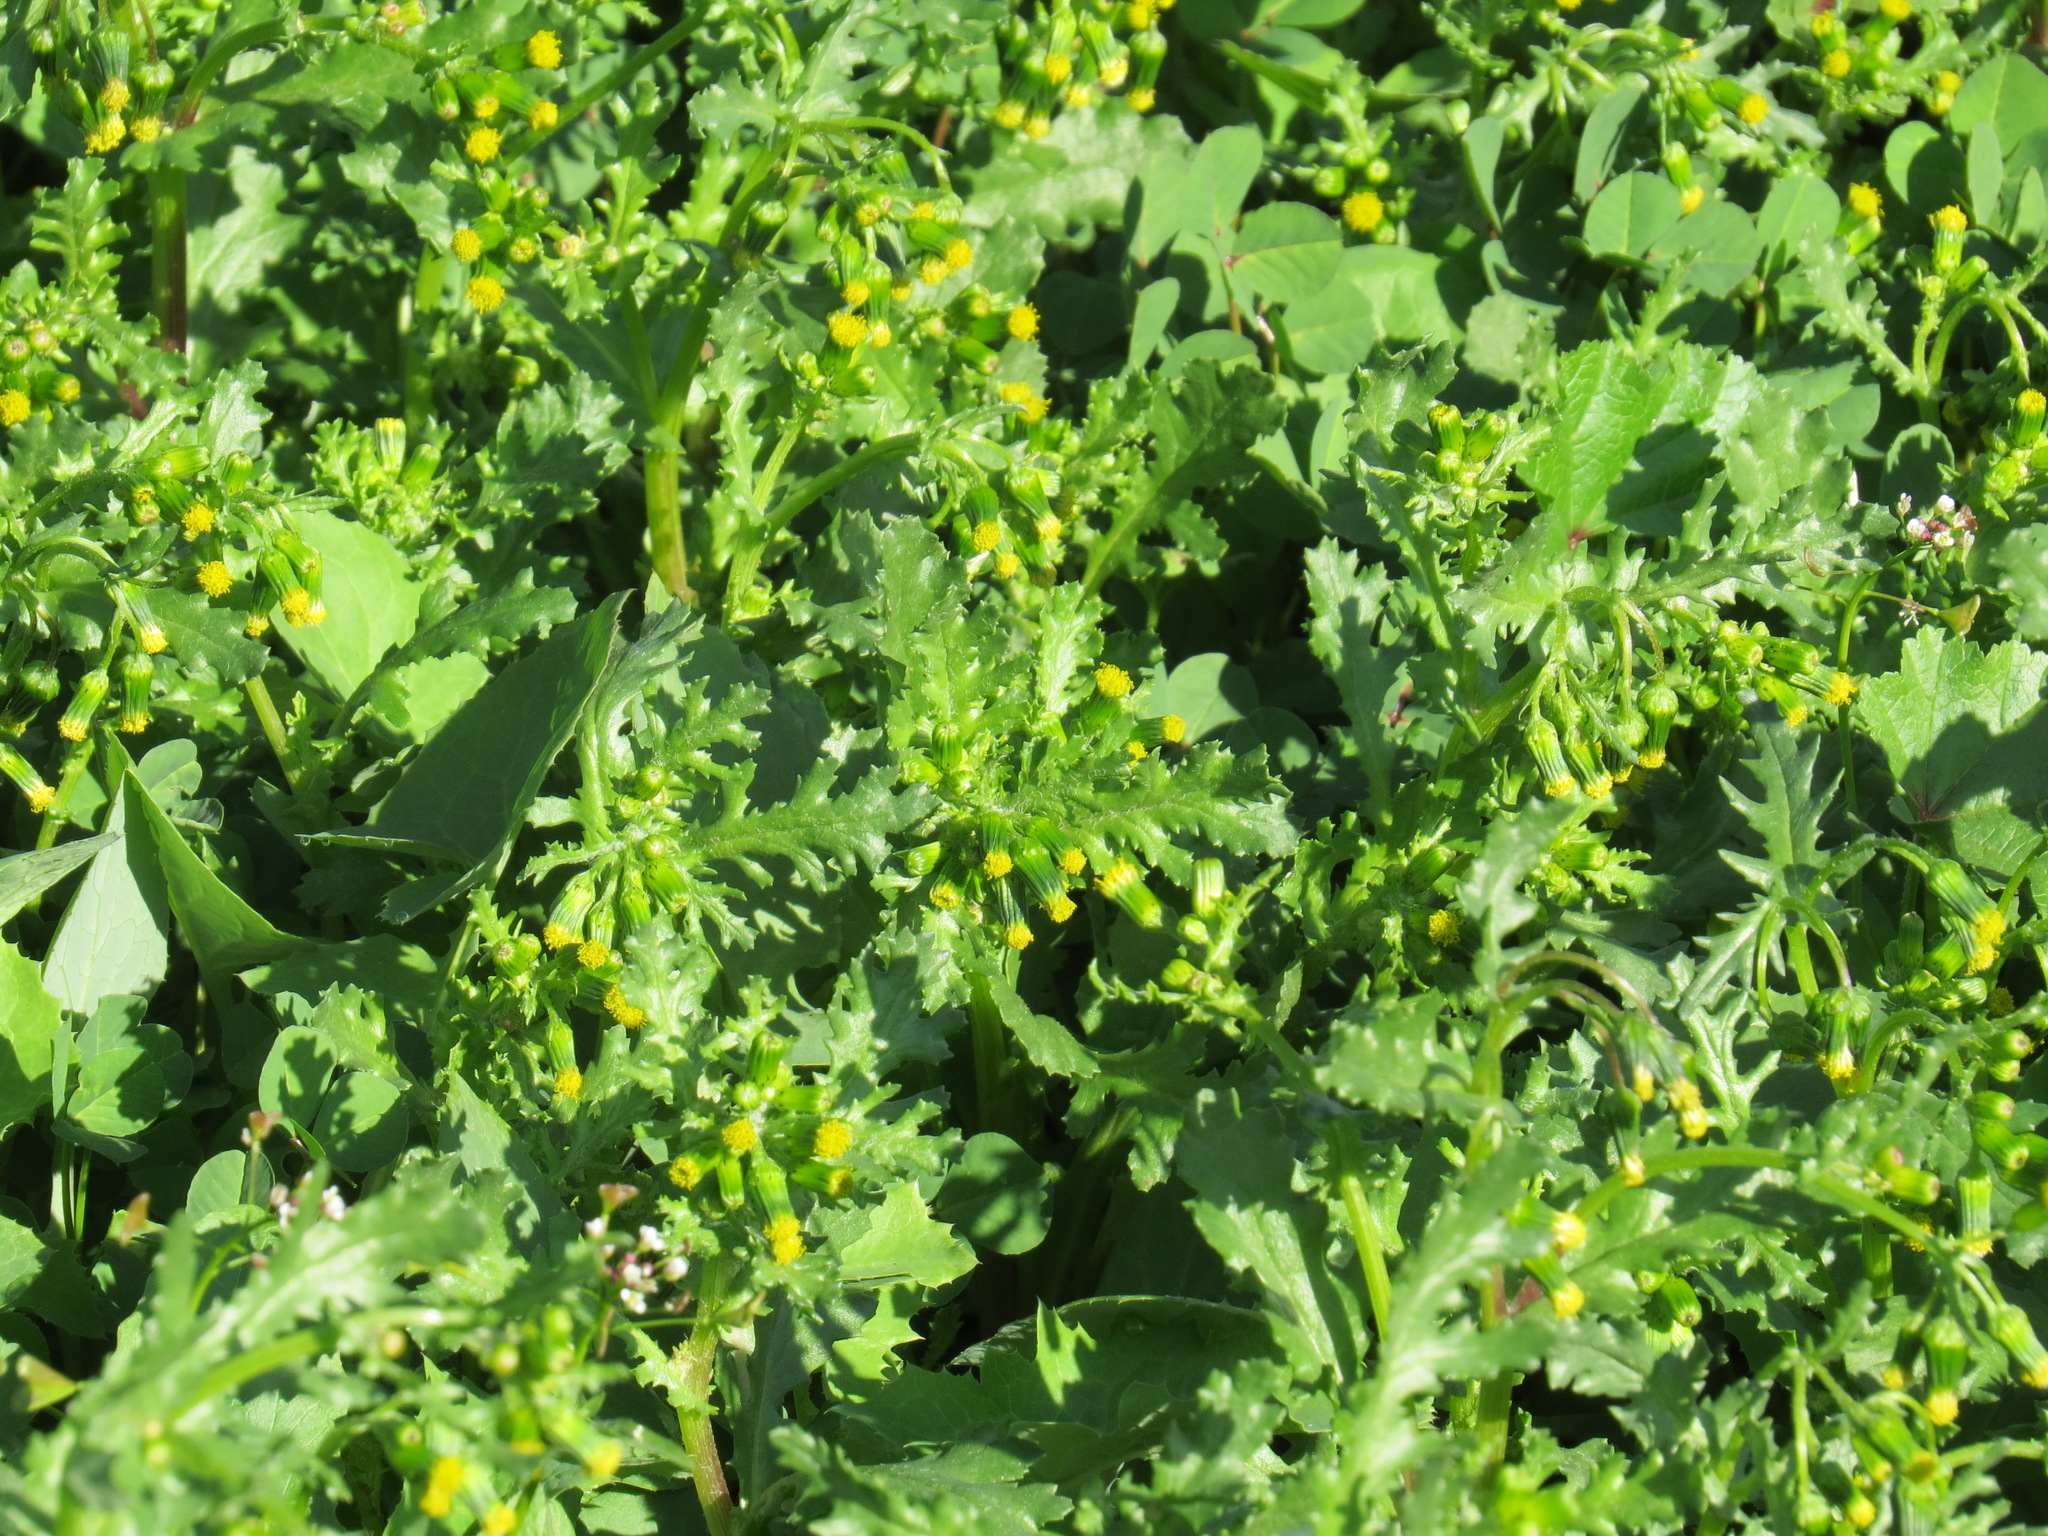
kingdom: Plantae
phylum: Tracheophyta
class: Magnoliopsida
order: Asterales
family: Asteraceae
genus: Senecio
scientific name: Senecio vulgaris
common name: Old-man-in-the-spring
